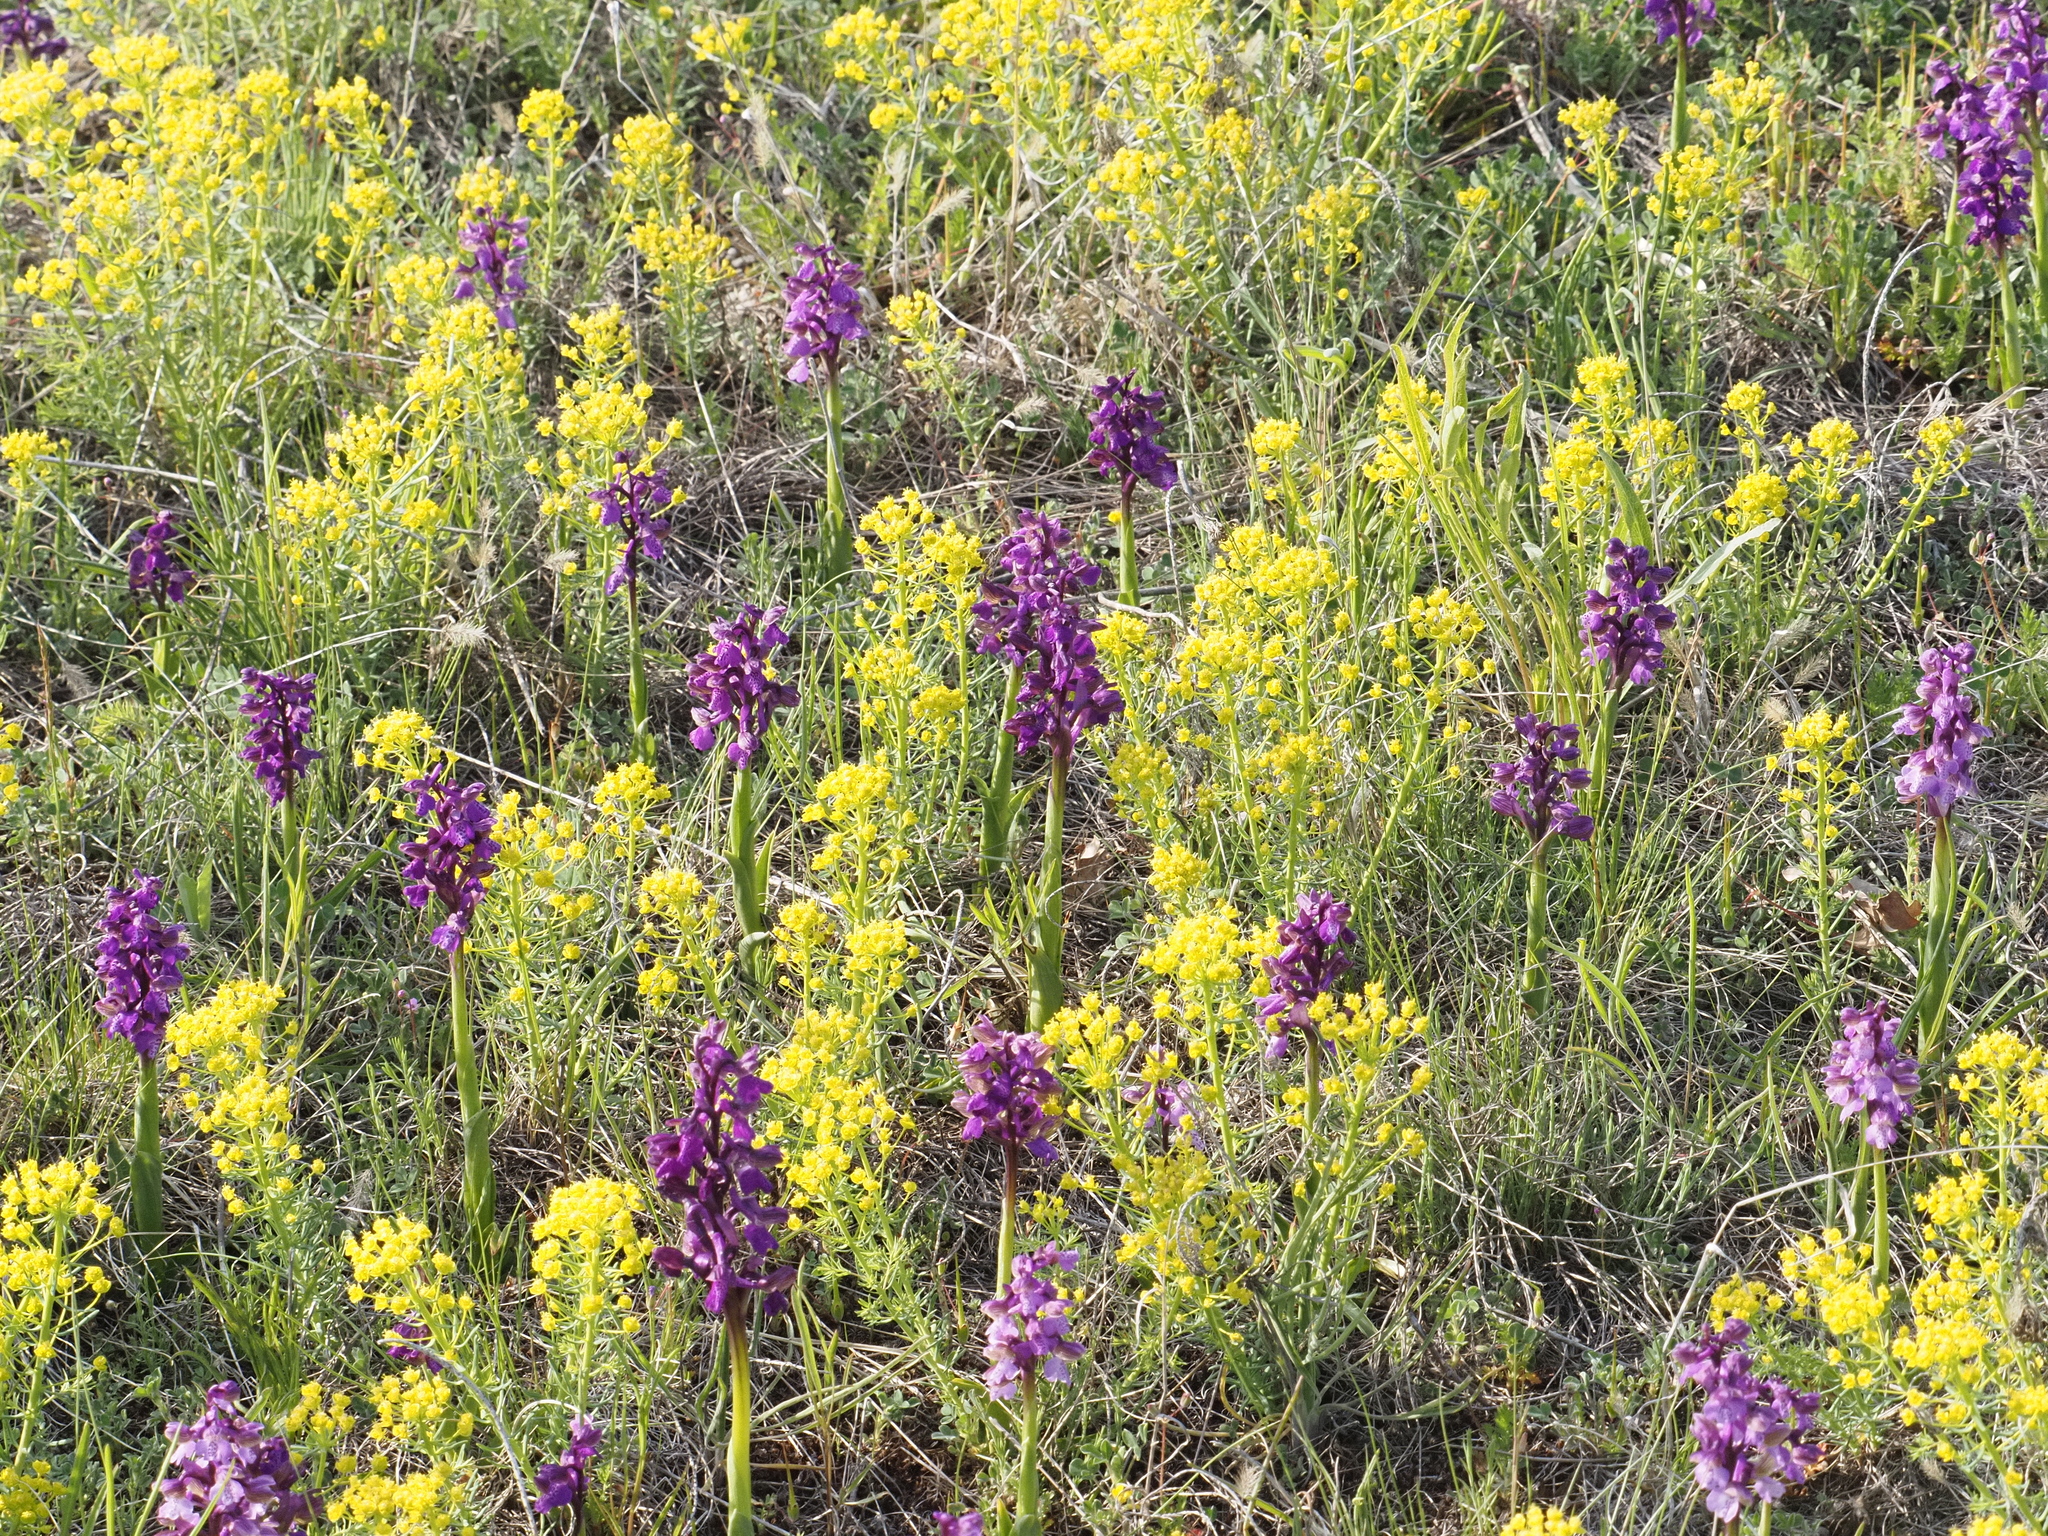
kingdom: Plantae
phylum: Tracheophyta
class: Liliopsida
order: Asparagales
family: Orchidaceae
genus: Anacamptis
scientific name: Anacamptis morio
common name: Green-winged orchid
